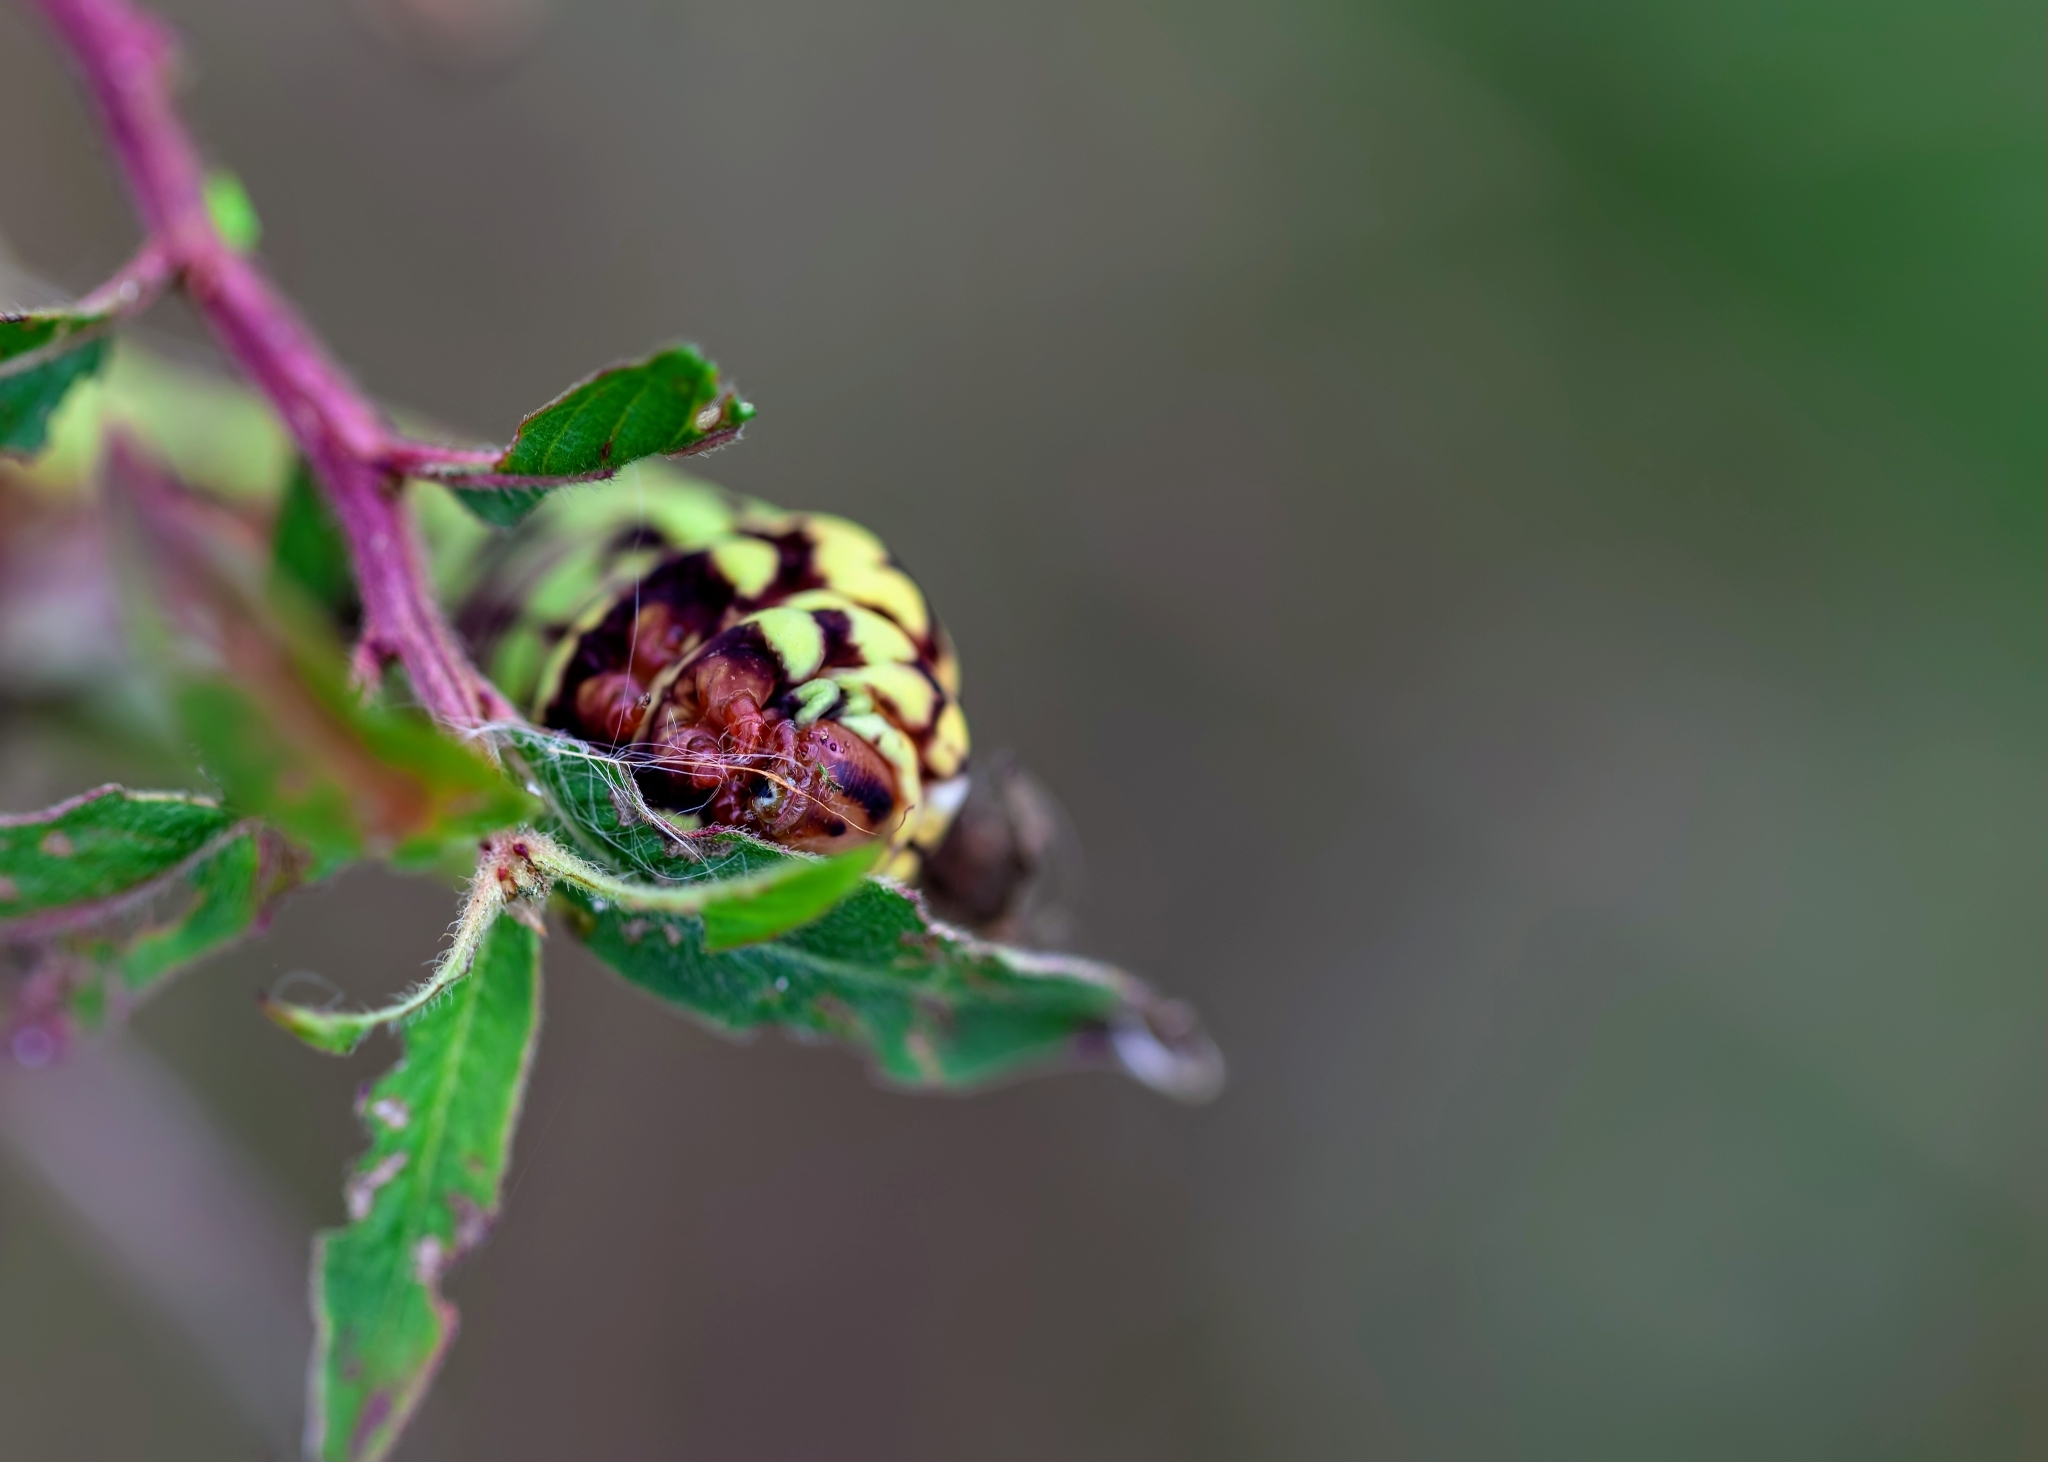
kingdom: Animalia
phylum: Arthropoda
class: Insecta
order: Lepidoptera
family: Sphingidae
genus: Eumorpha
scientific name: Eumorpha fasciatus
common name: Banded sphinx
